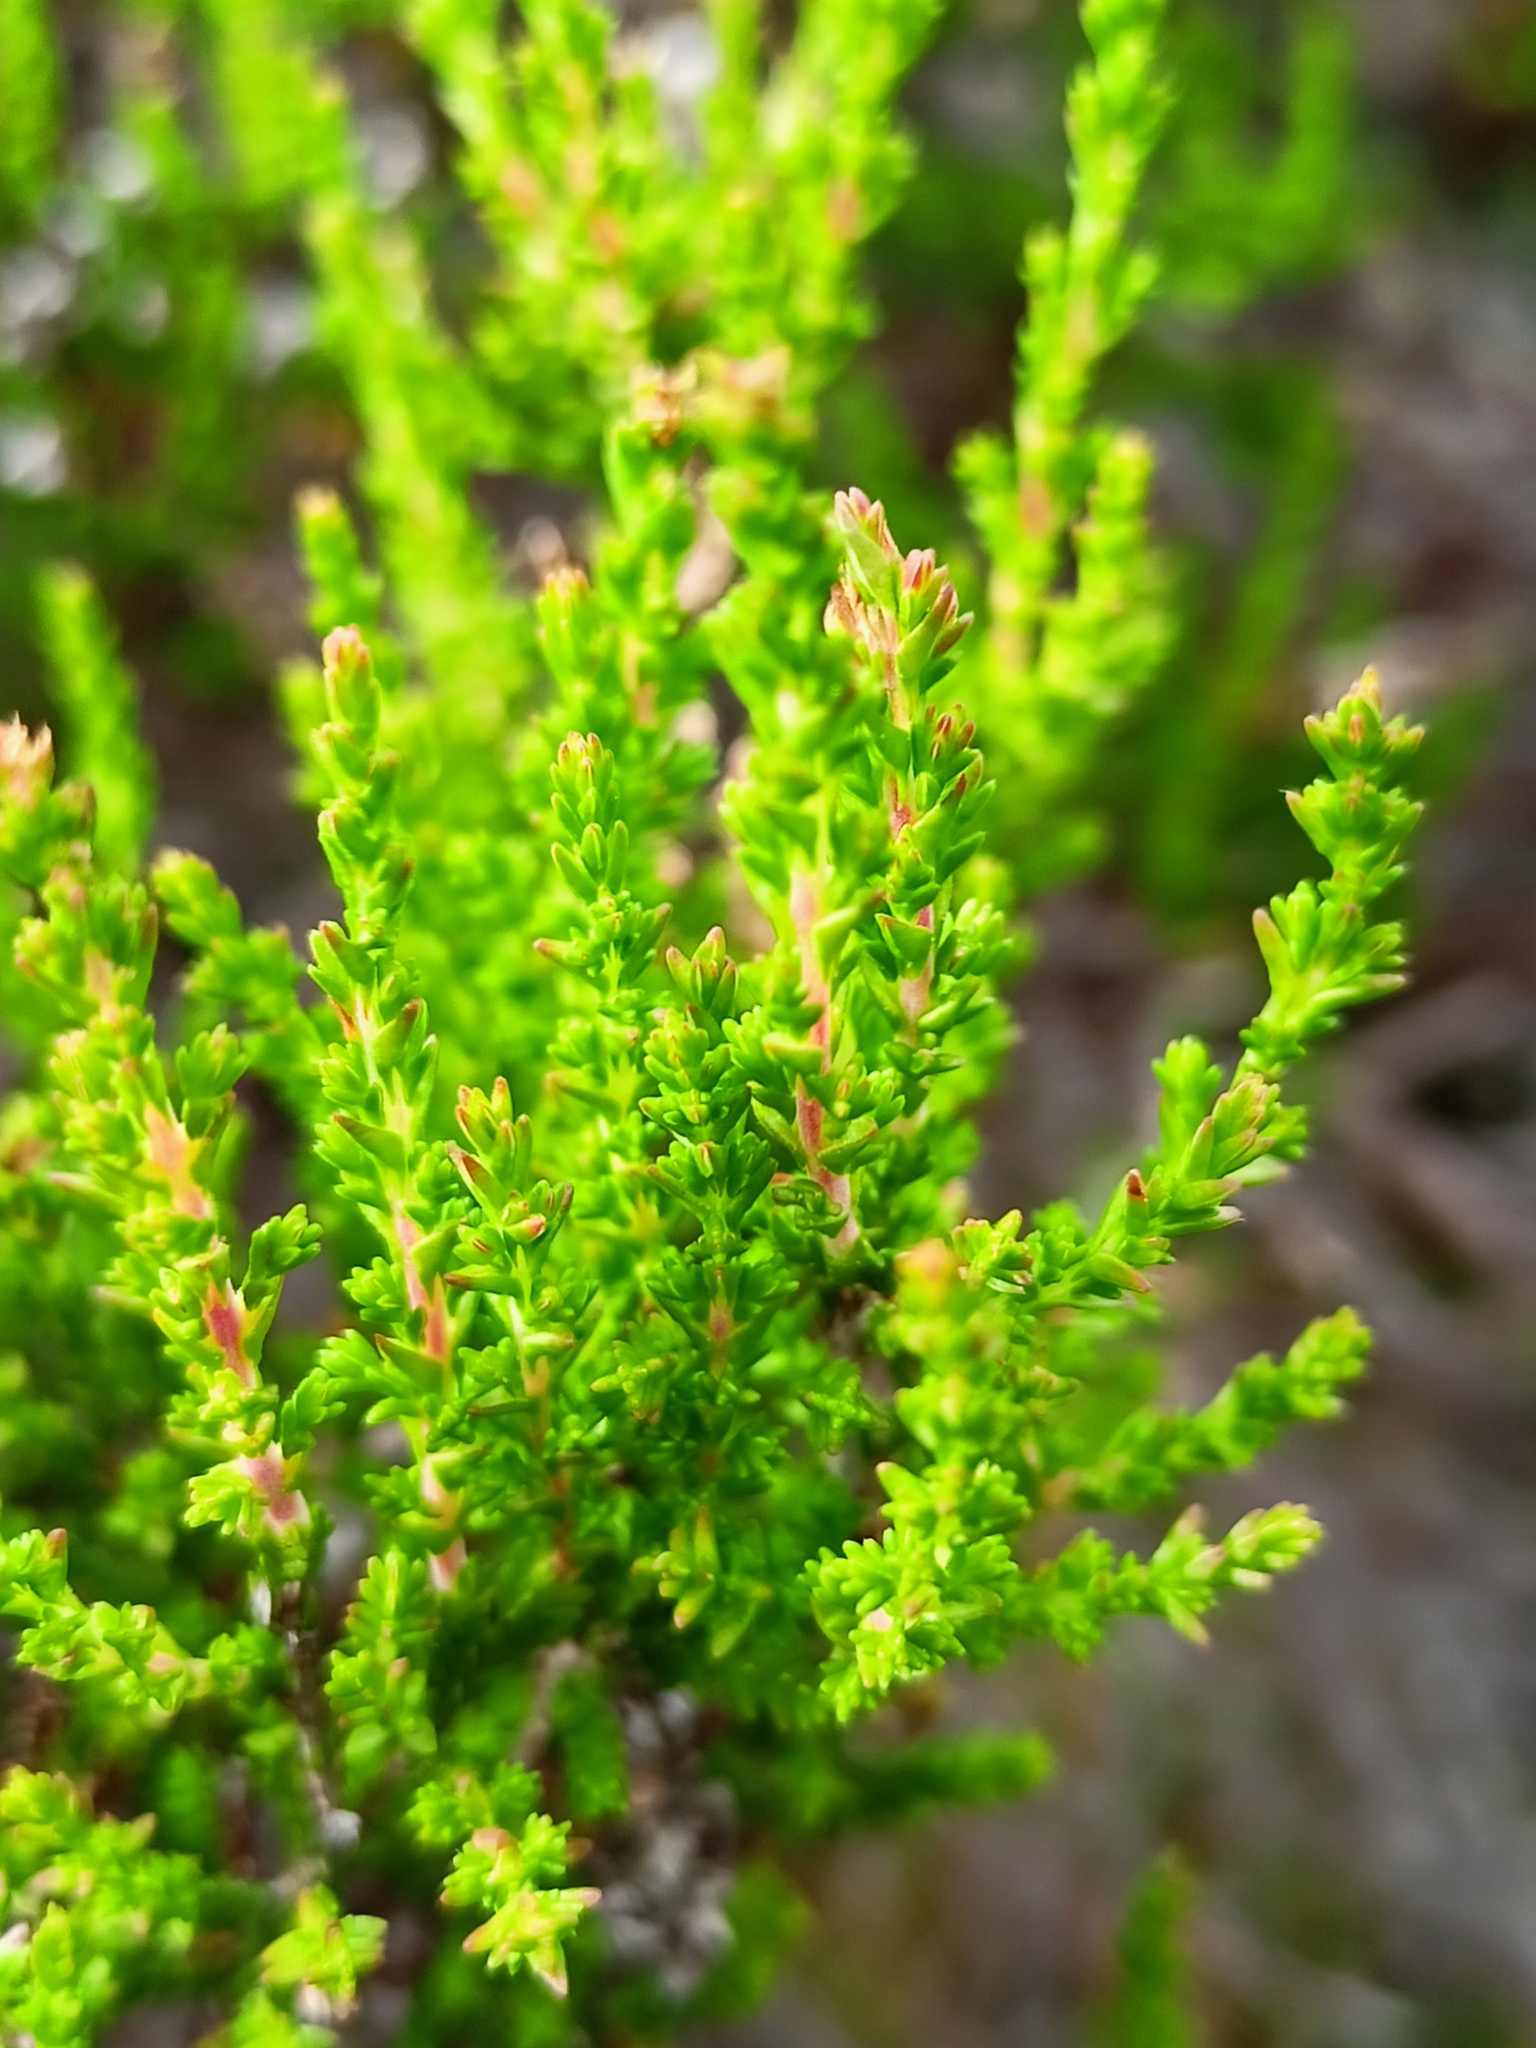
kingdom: Plantae
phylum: Tracheophyta
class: Magnoliopsida
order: Ericales
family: Ericaceae
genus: Calluna
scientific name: Calluna vulgaris
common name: Heather
